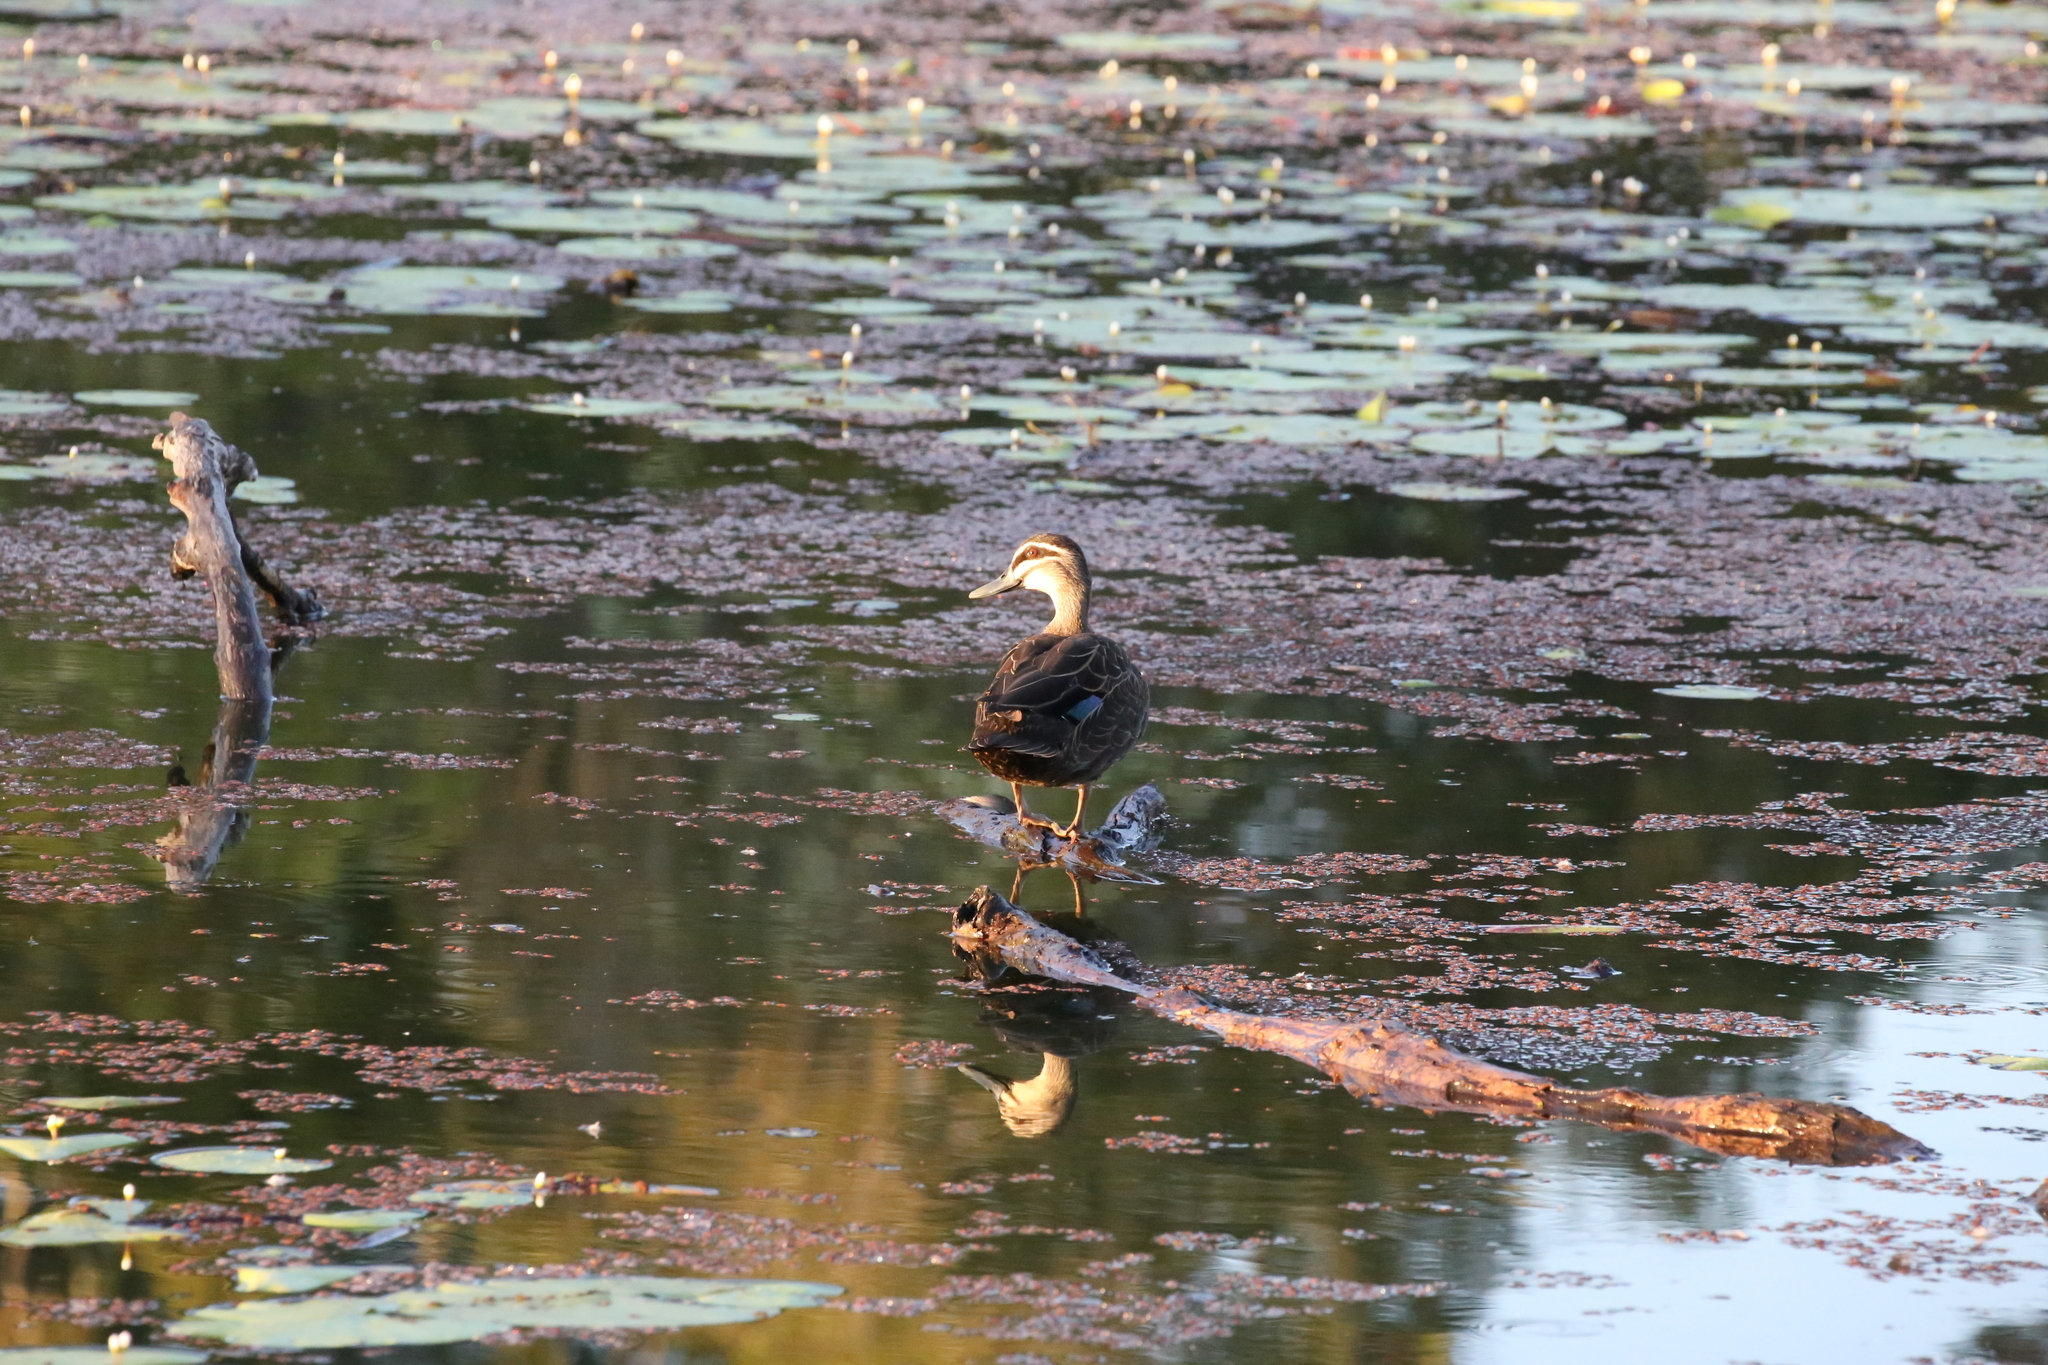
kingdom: Animalia
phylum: Chordata
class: Aves
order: Anseriformes
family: Anatidae
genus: Anas
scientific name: Anas superciliosa
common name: Pacific black duck
